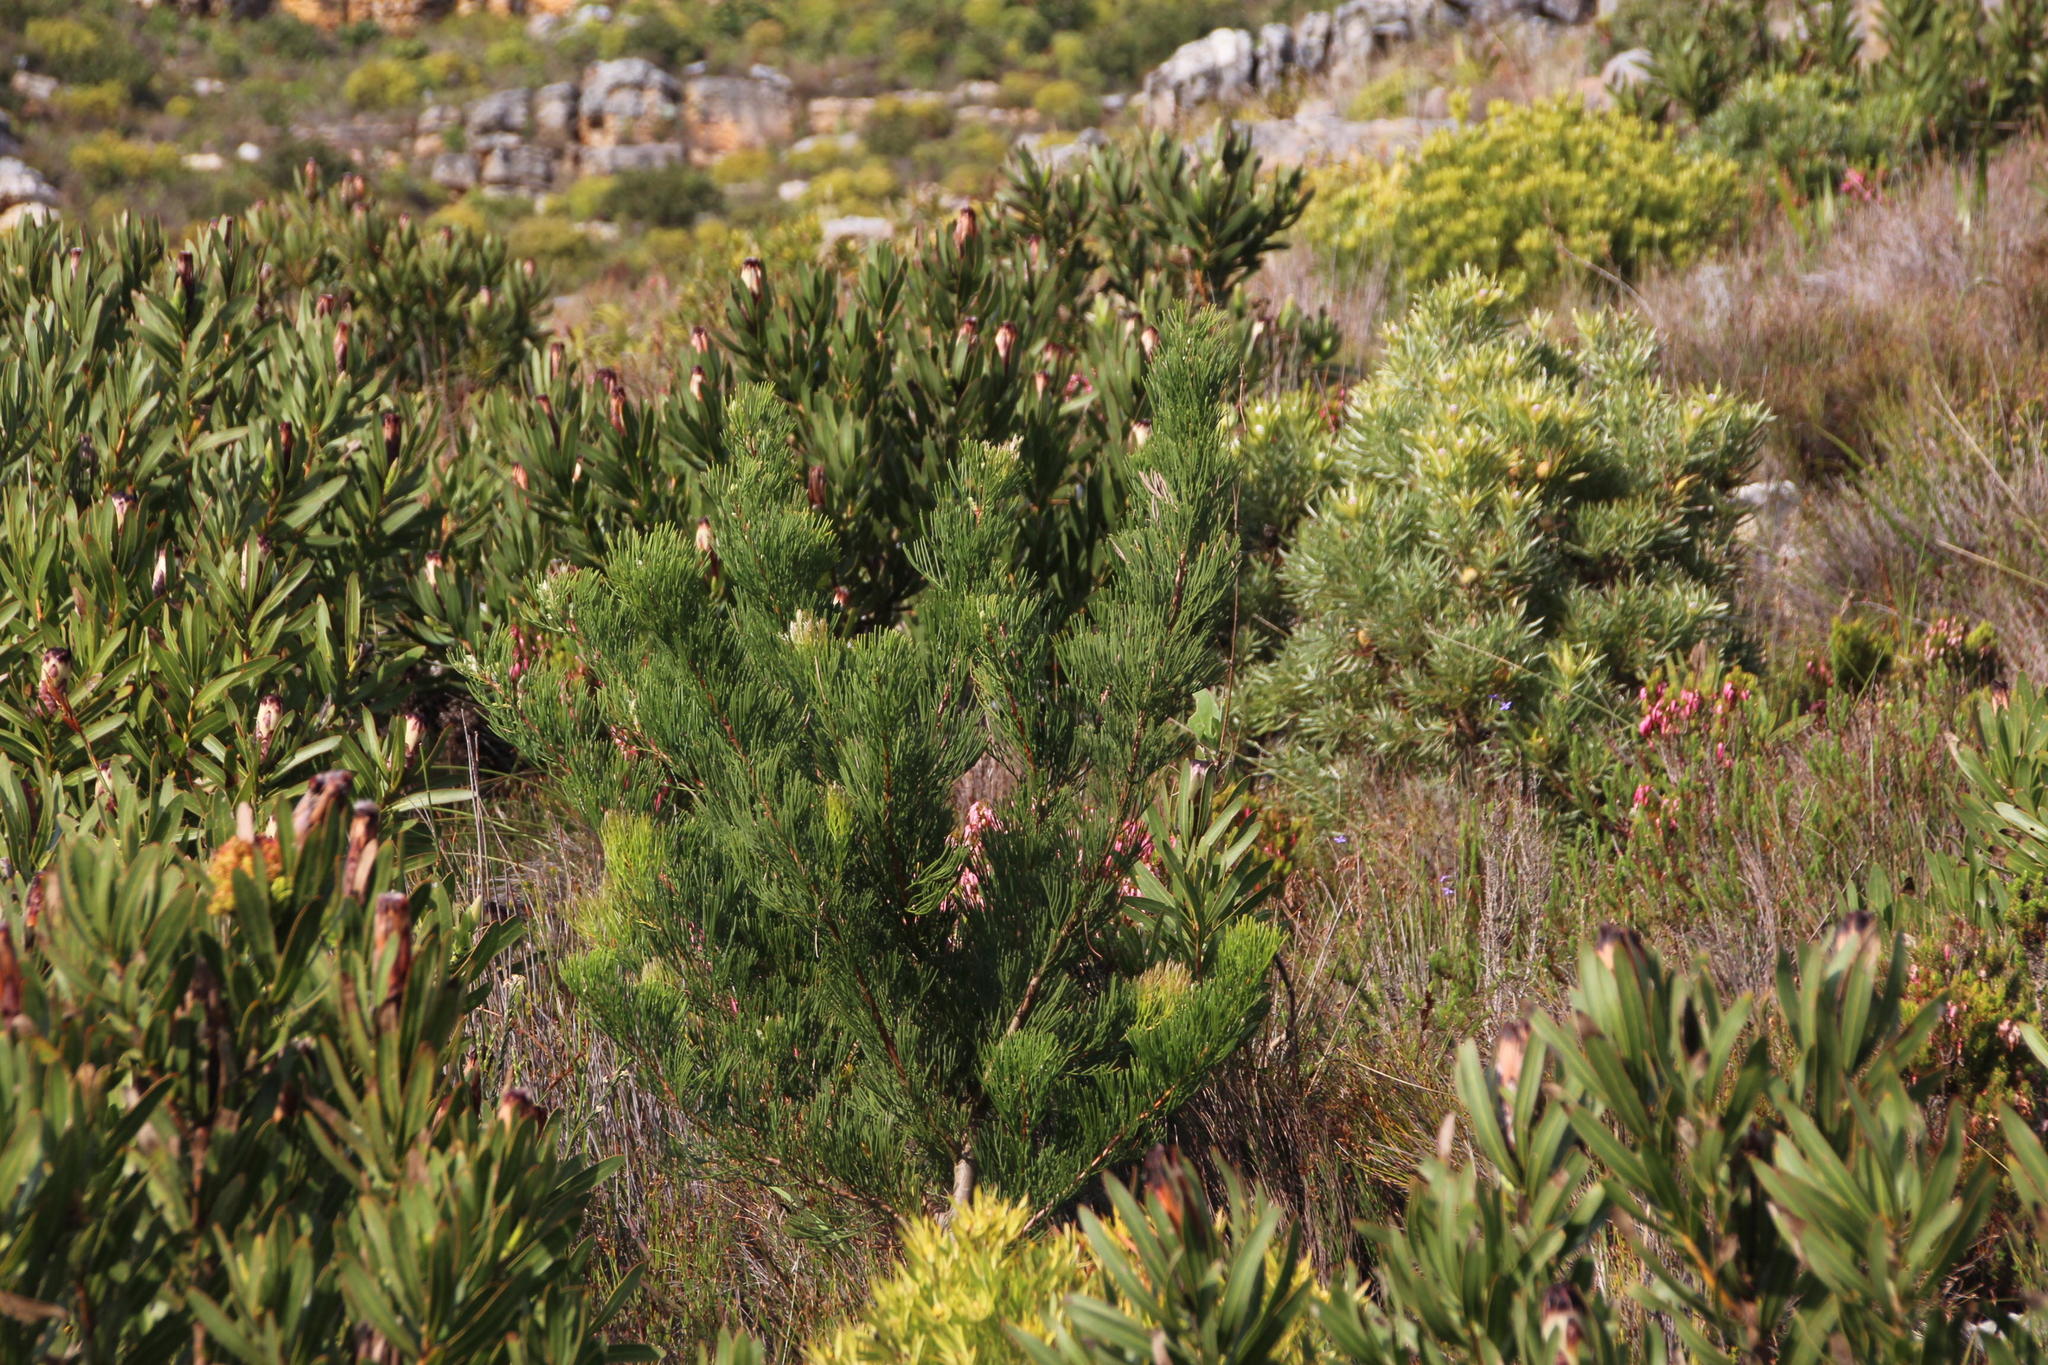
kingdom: Plantae
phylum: Tracheophyta
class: Magnoliopsida
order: Proteales
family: Proteaceae
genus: Hakea
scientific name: Hakea drupacea
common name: Sweet hakea
